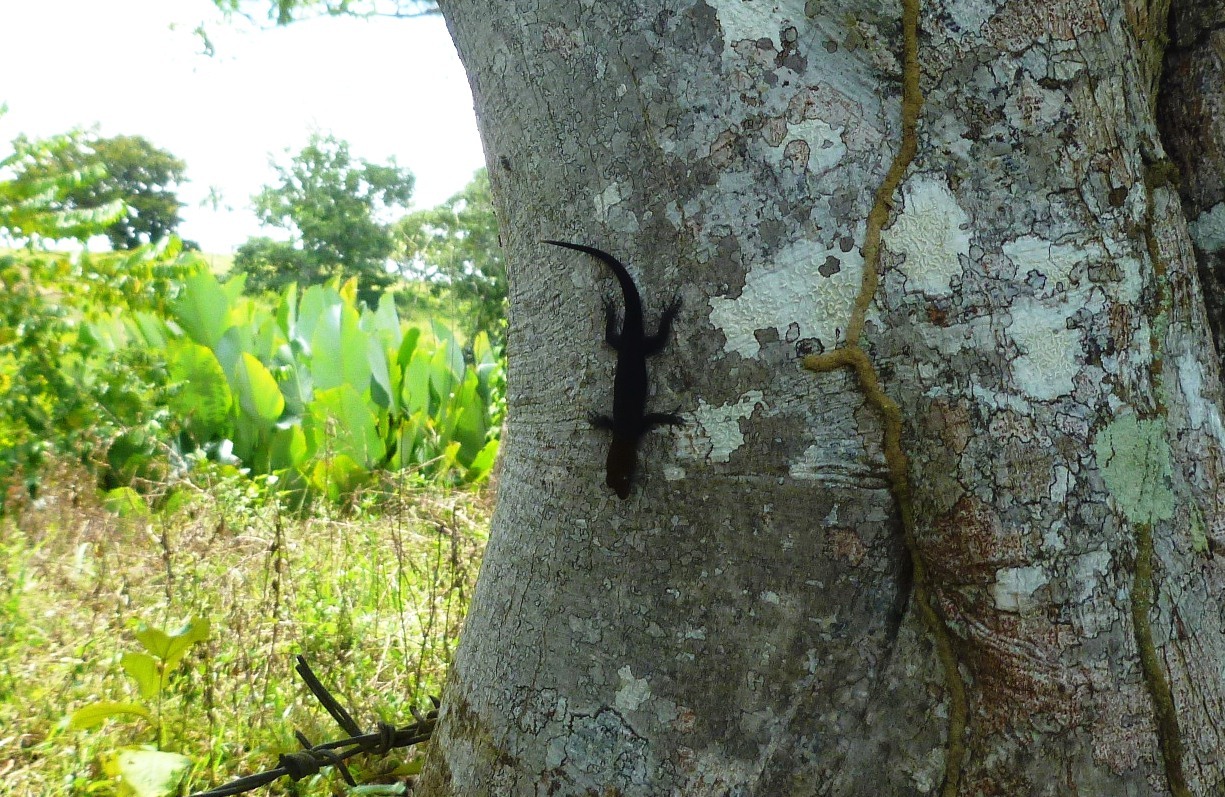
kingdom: Animalia
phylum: Chordata
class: Squamata
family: Sphaerodactylidae
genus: Gonatodes
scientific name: Gonatodes albogularis
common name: Yellow-headed gecko
